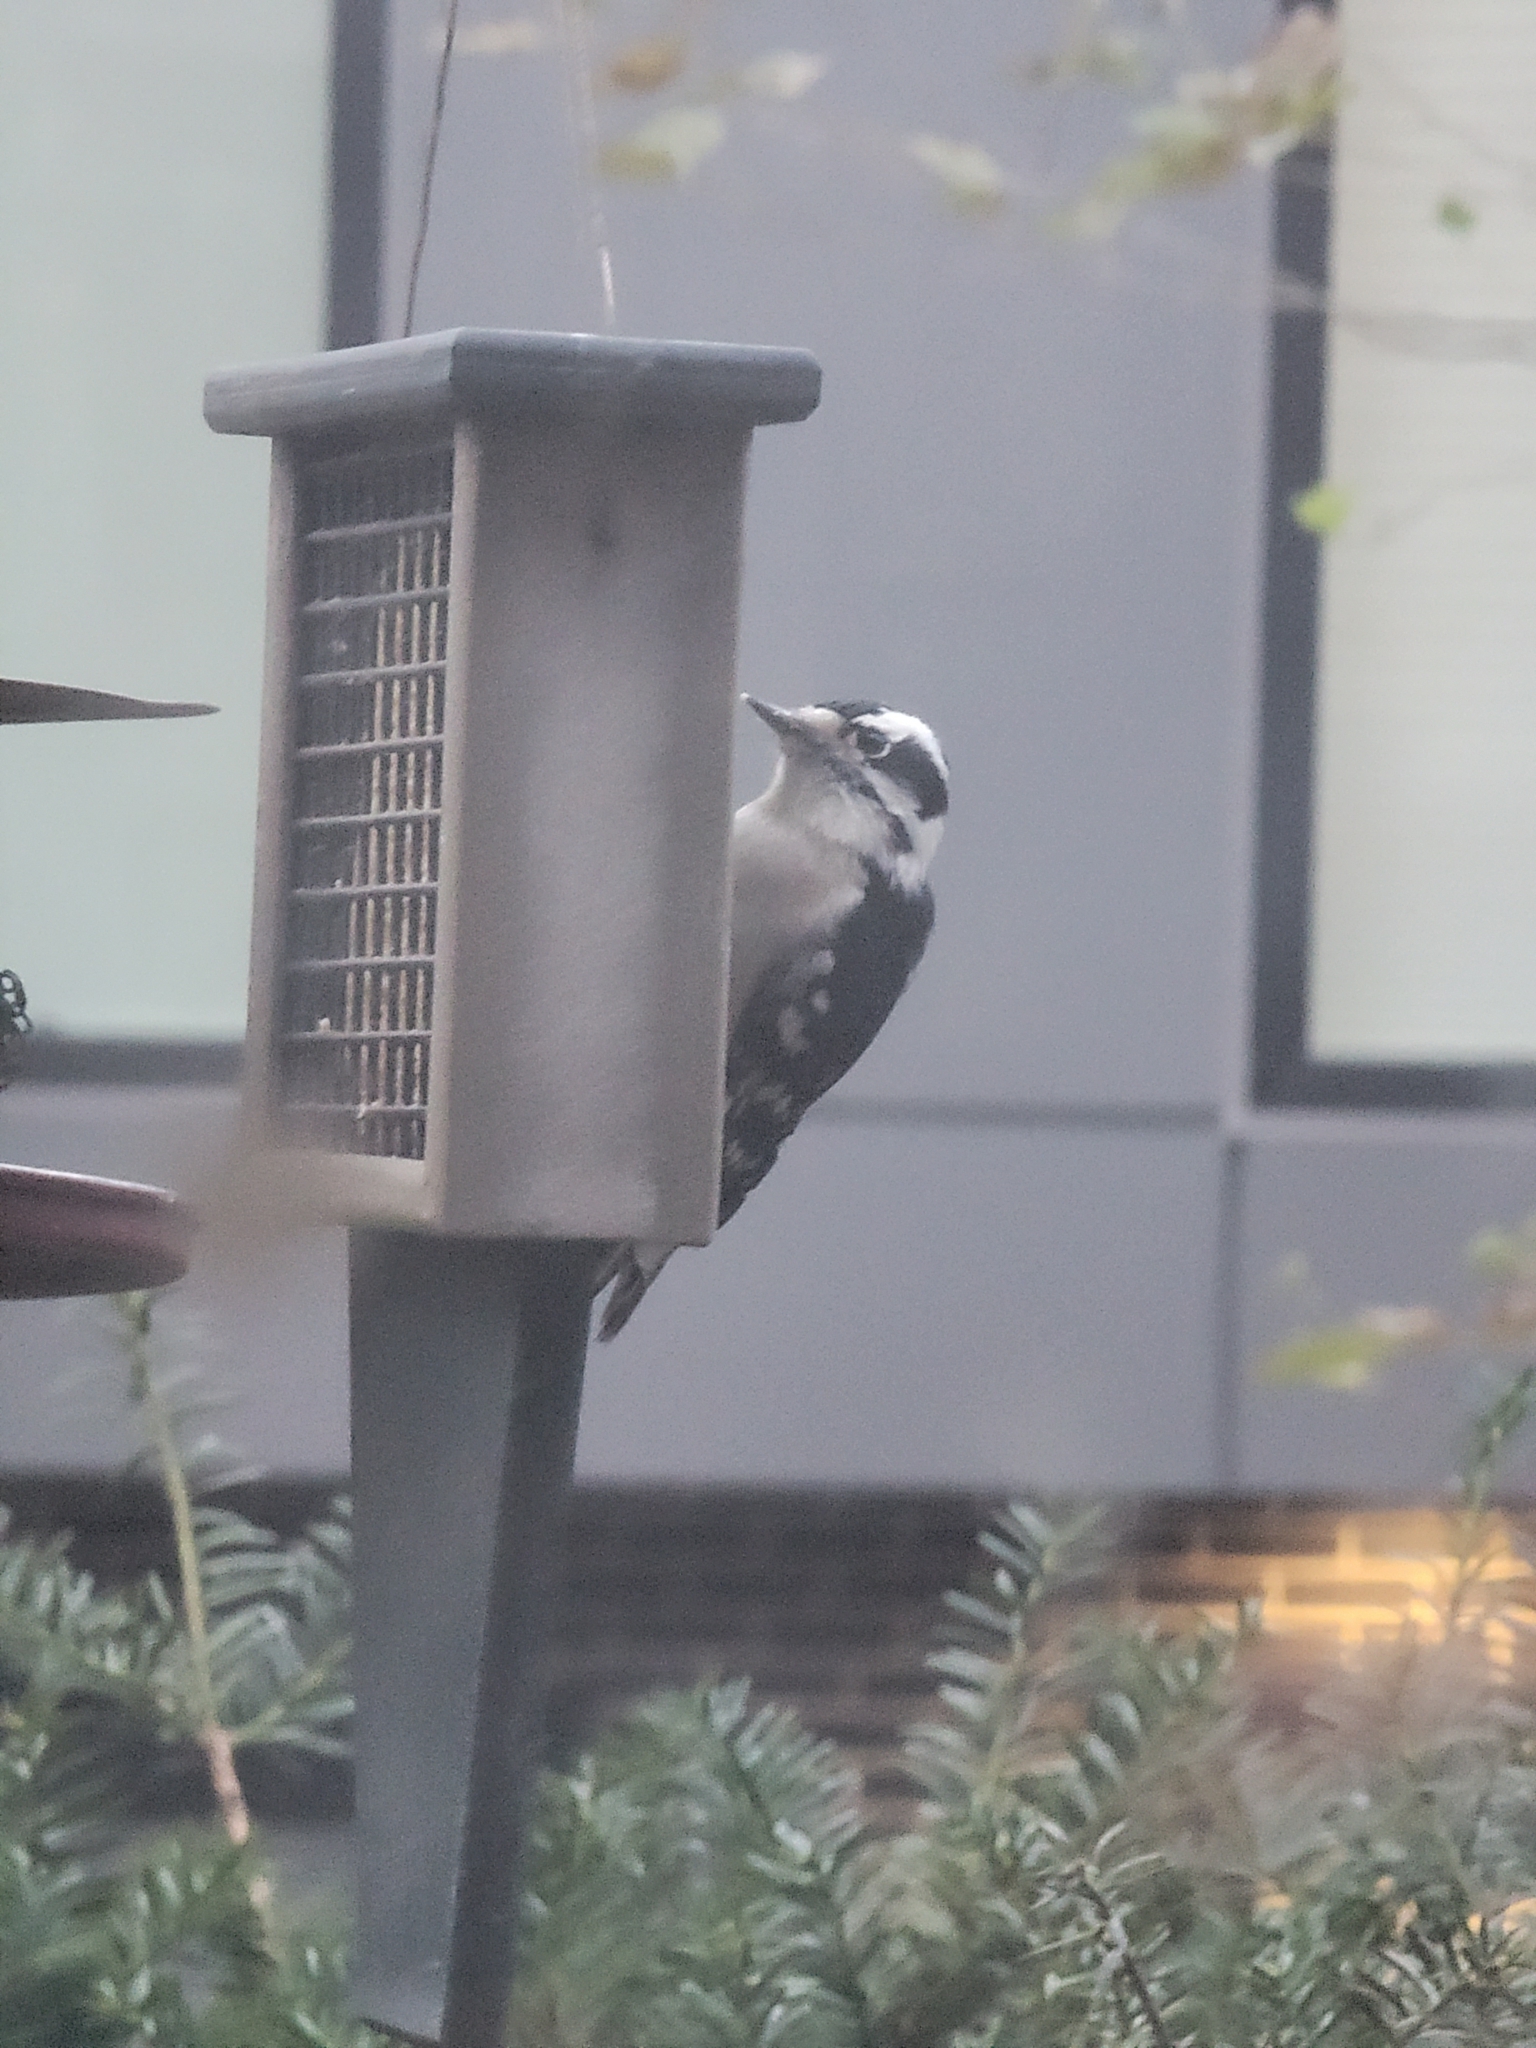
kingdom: Animalia
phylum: Chordata
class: Aves
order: Piciformes
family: Picidae
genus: Dryobates
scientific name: Dryobates pubescens
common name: Downy woodpecker
